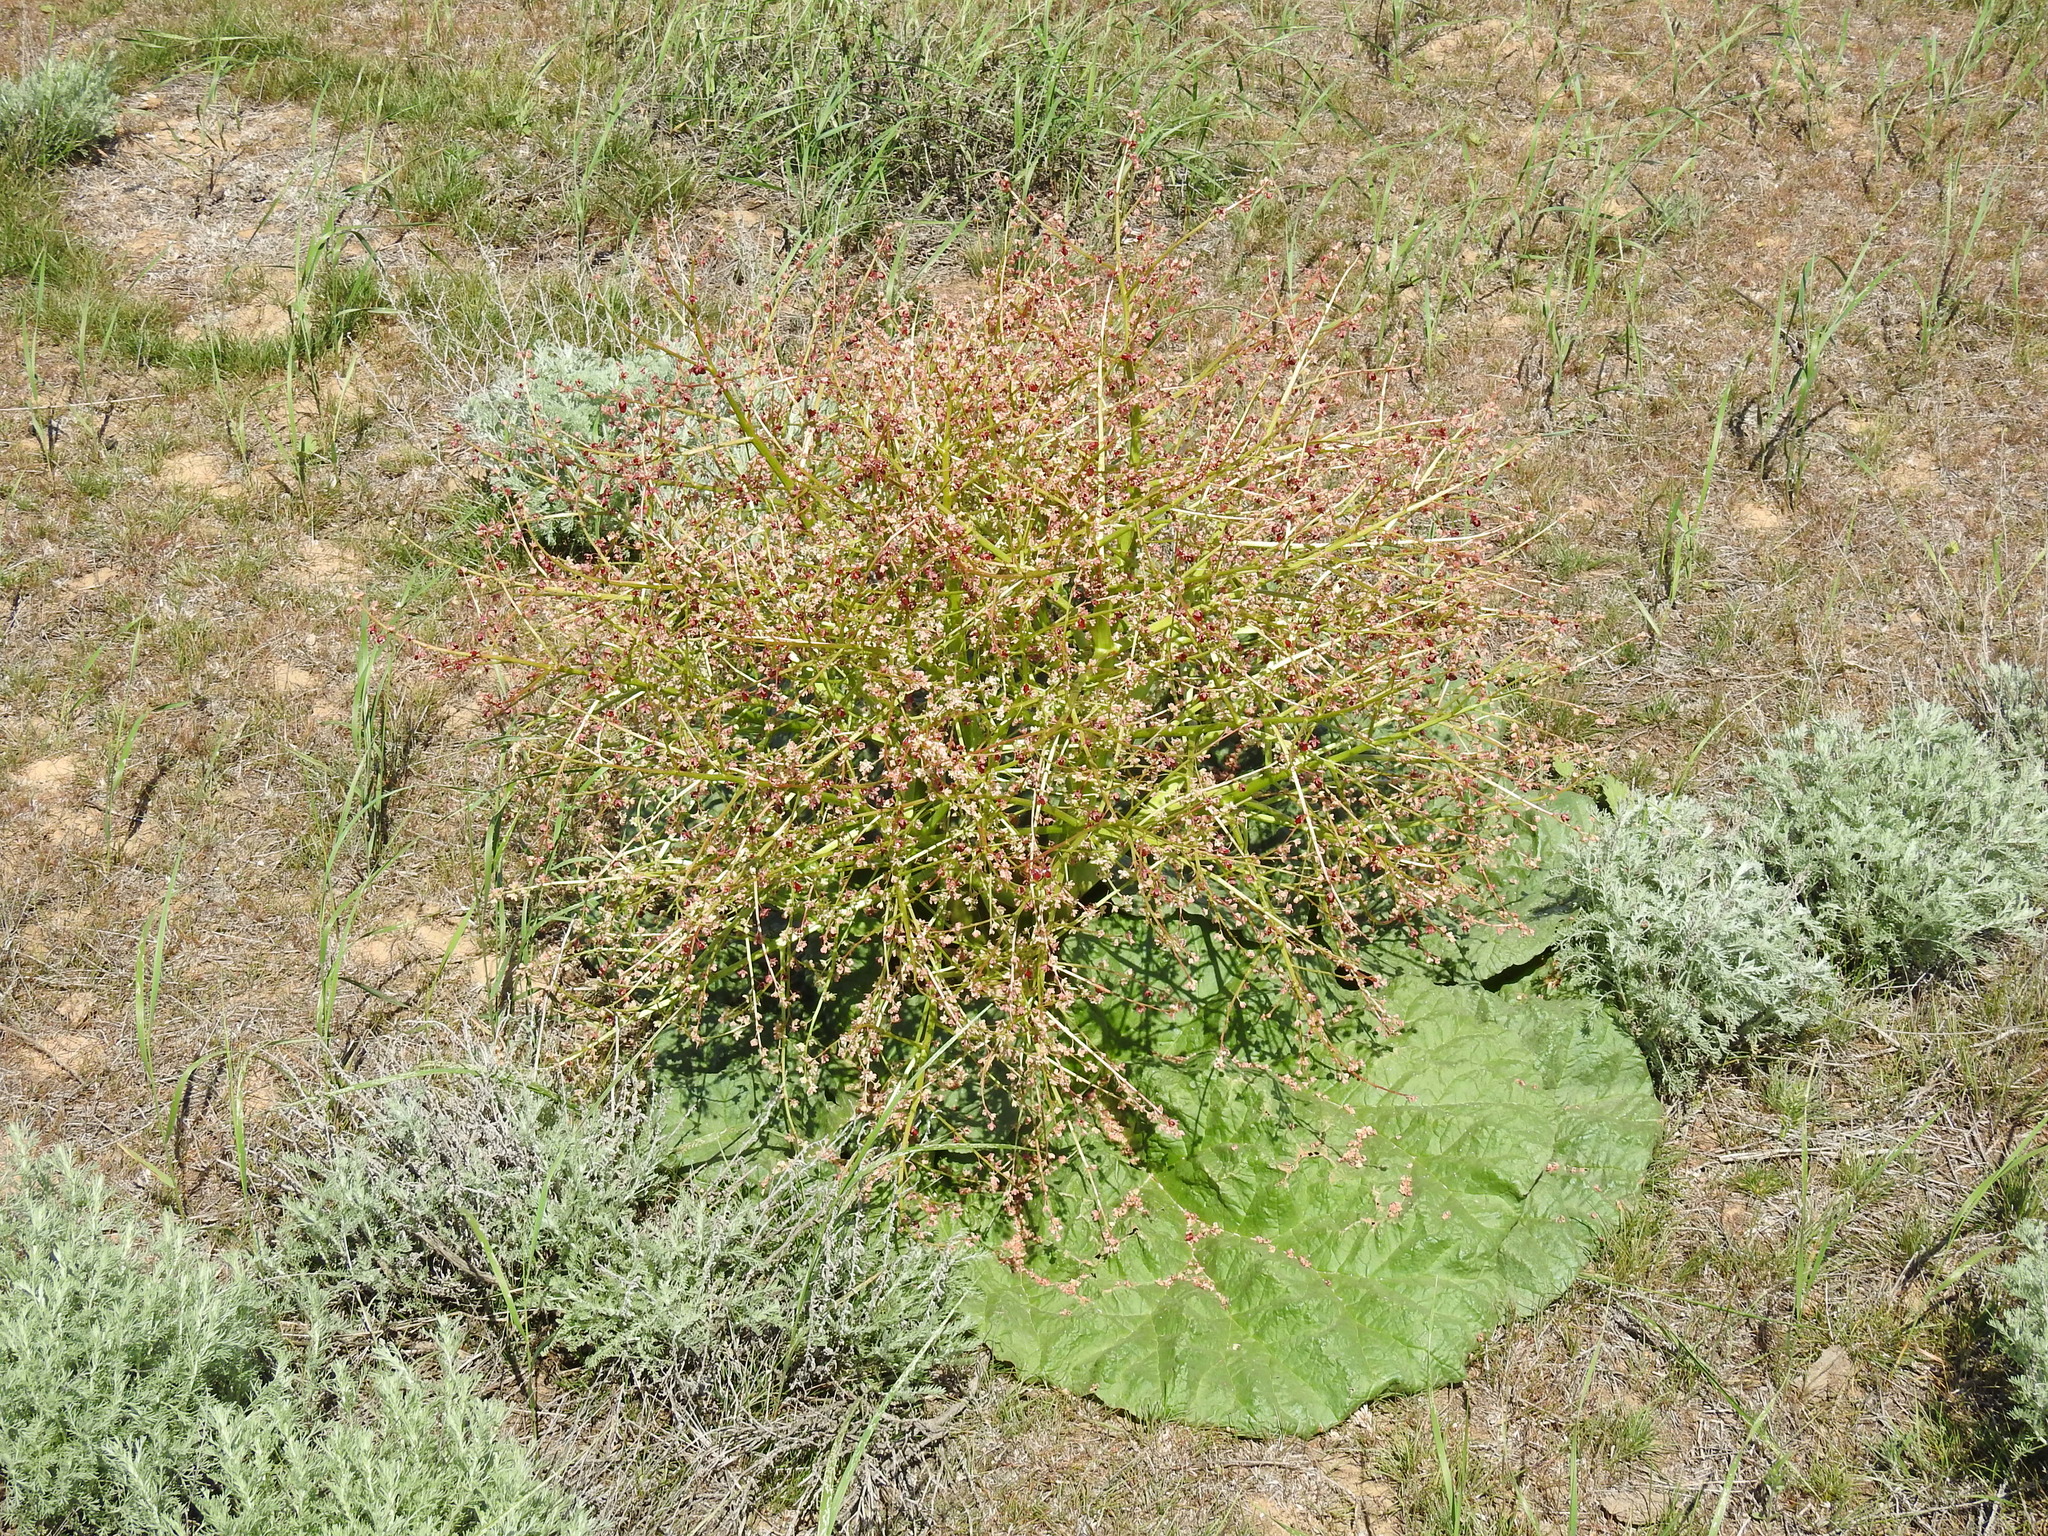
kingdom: Plantae
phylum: Tracheophyta
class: Magnoliopsida
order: Caryophyllales
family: Polygonaceae
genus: Rheum
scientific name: Rheum tataricum
